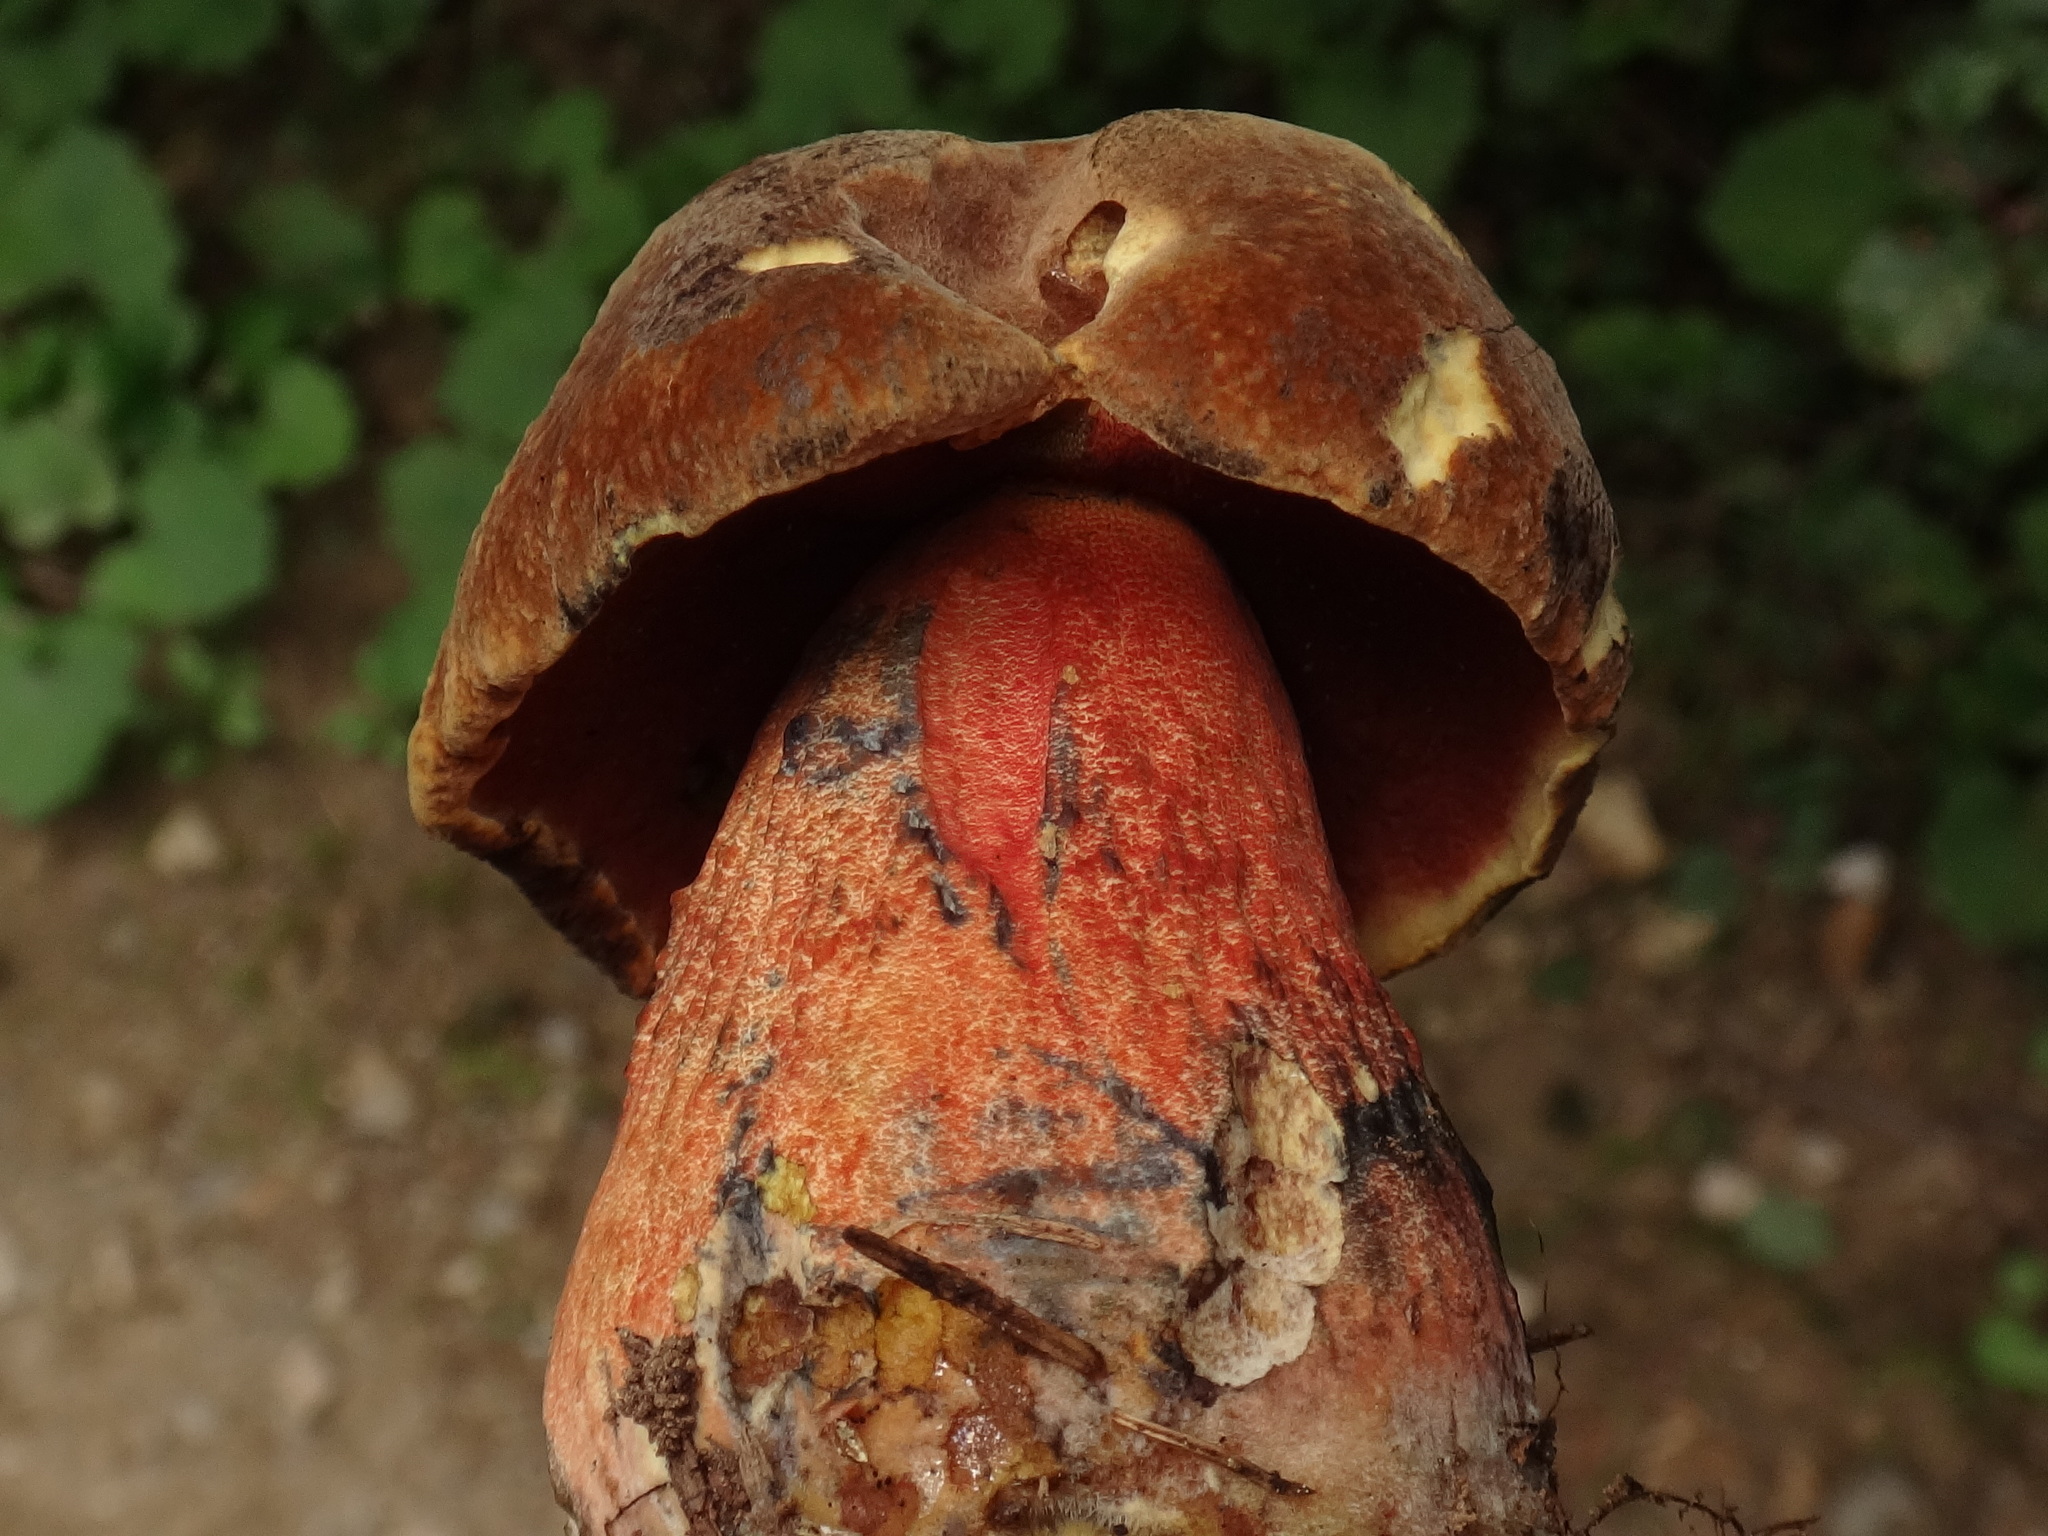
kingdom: Fungi
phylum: Basidiomycota
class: Agaricomycetes
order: Boletales
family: Boletaceae
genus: Neoboletus
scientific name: Neoboletus erythropus
